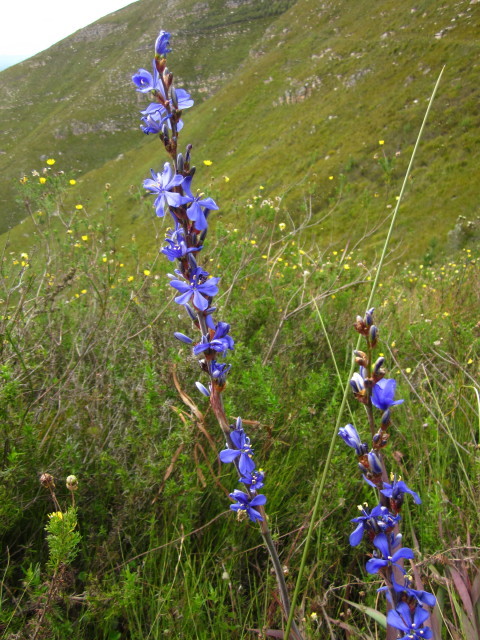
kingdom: Plantae
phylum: Tracheophyta
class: Liliopsida
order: Asparagales
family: Iridaceae
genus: Aristea
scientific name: Aristea bakeri
